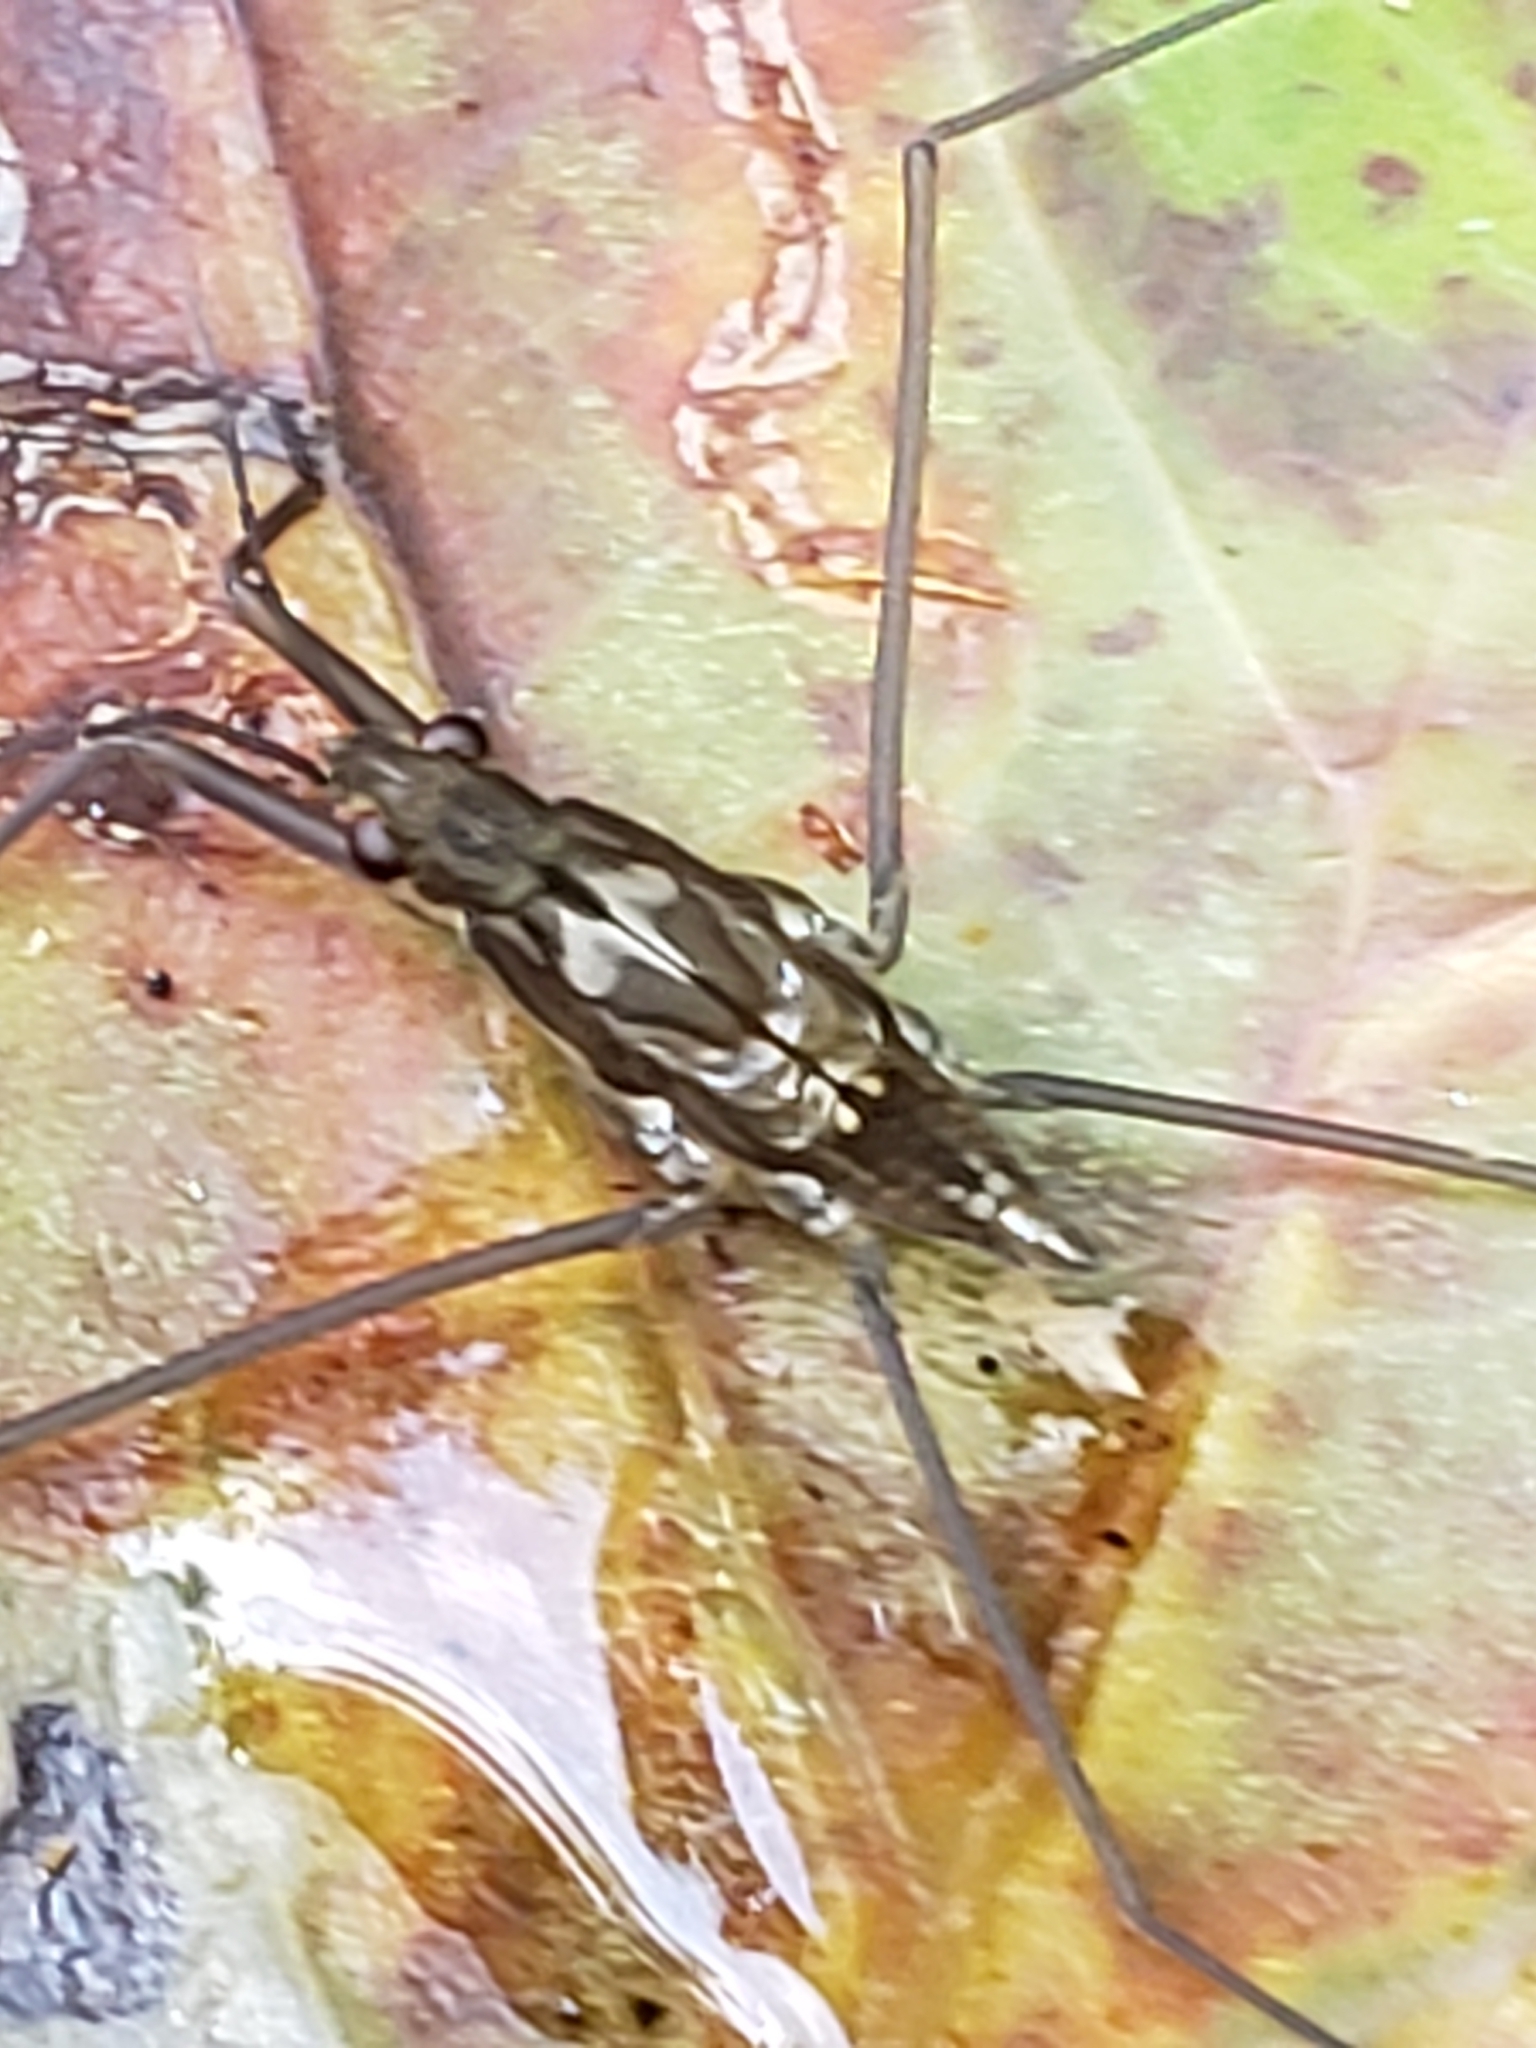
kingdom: Animalia
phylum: Arthropoda
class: Insecta
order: Hemiptera
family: Gerridae
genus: Aquarius
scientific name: Aquarius
